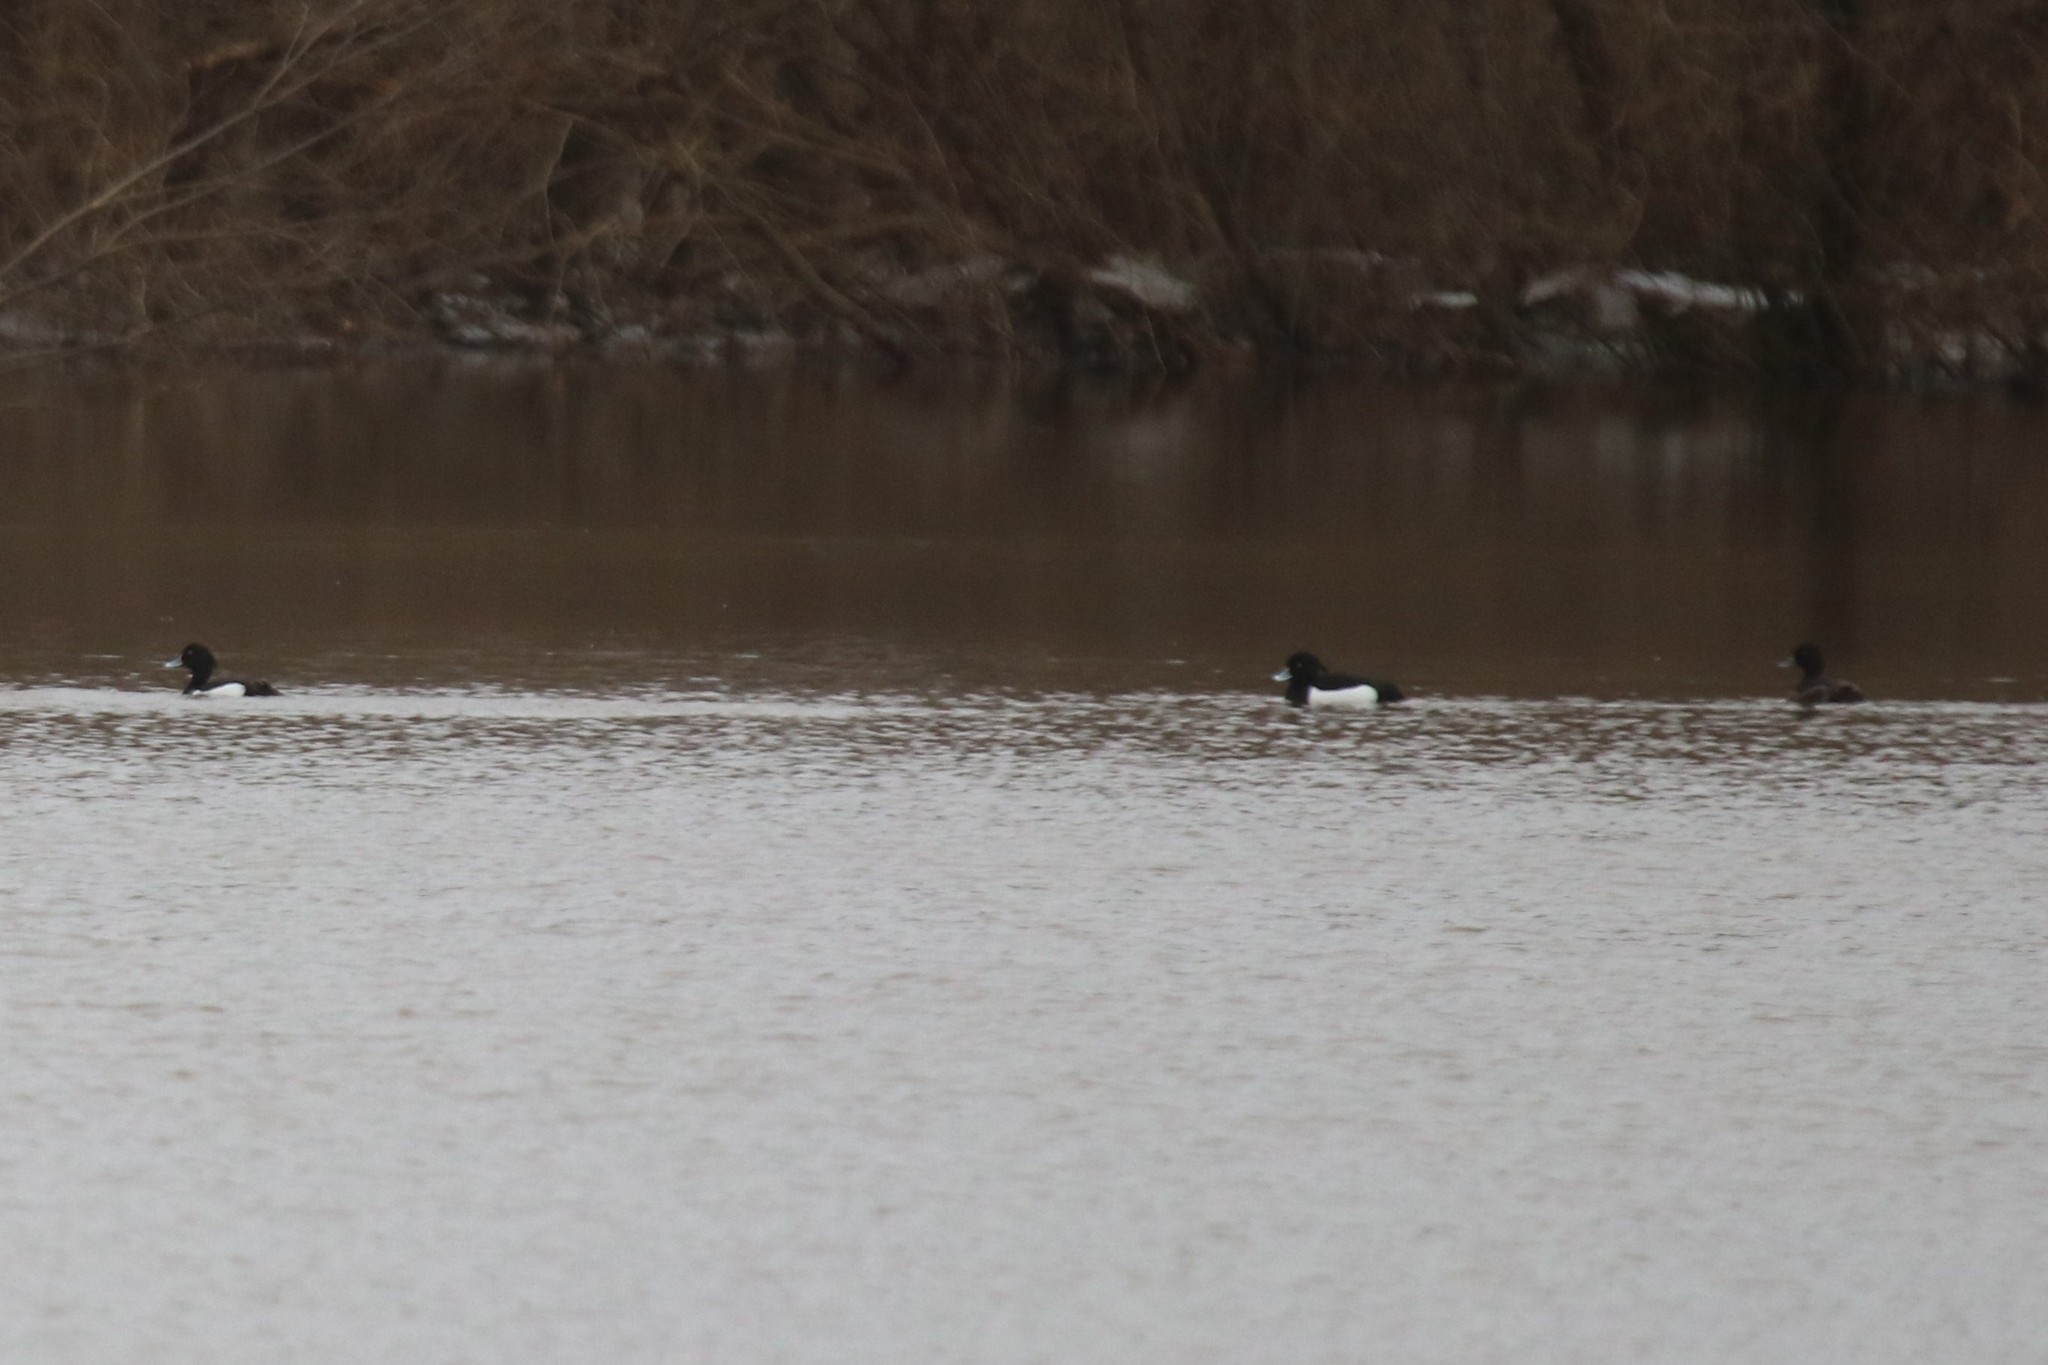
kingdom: Animalia
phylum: Chordata
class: Aves
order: Anseriformes
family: Anatidae
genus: Aythya
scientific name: Aythya fuligula
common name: Tufted duck
